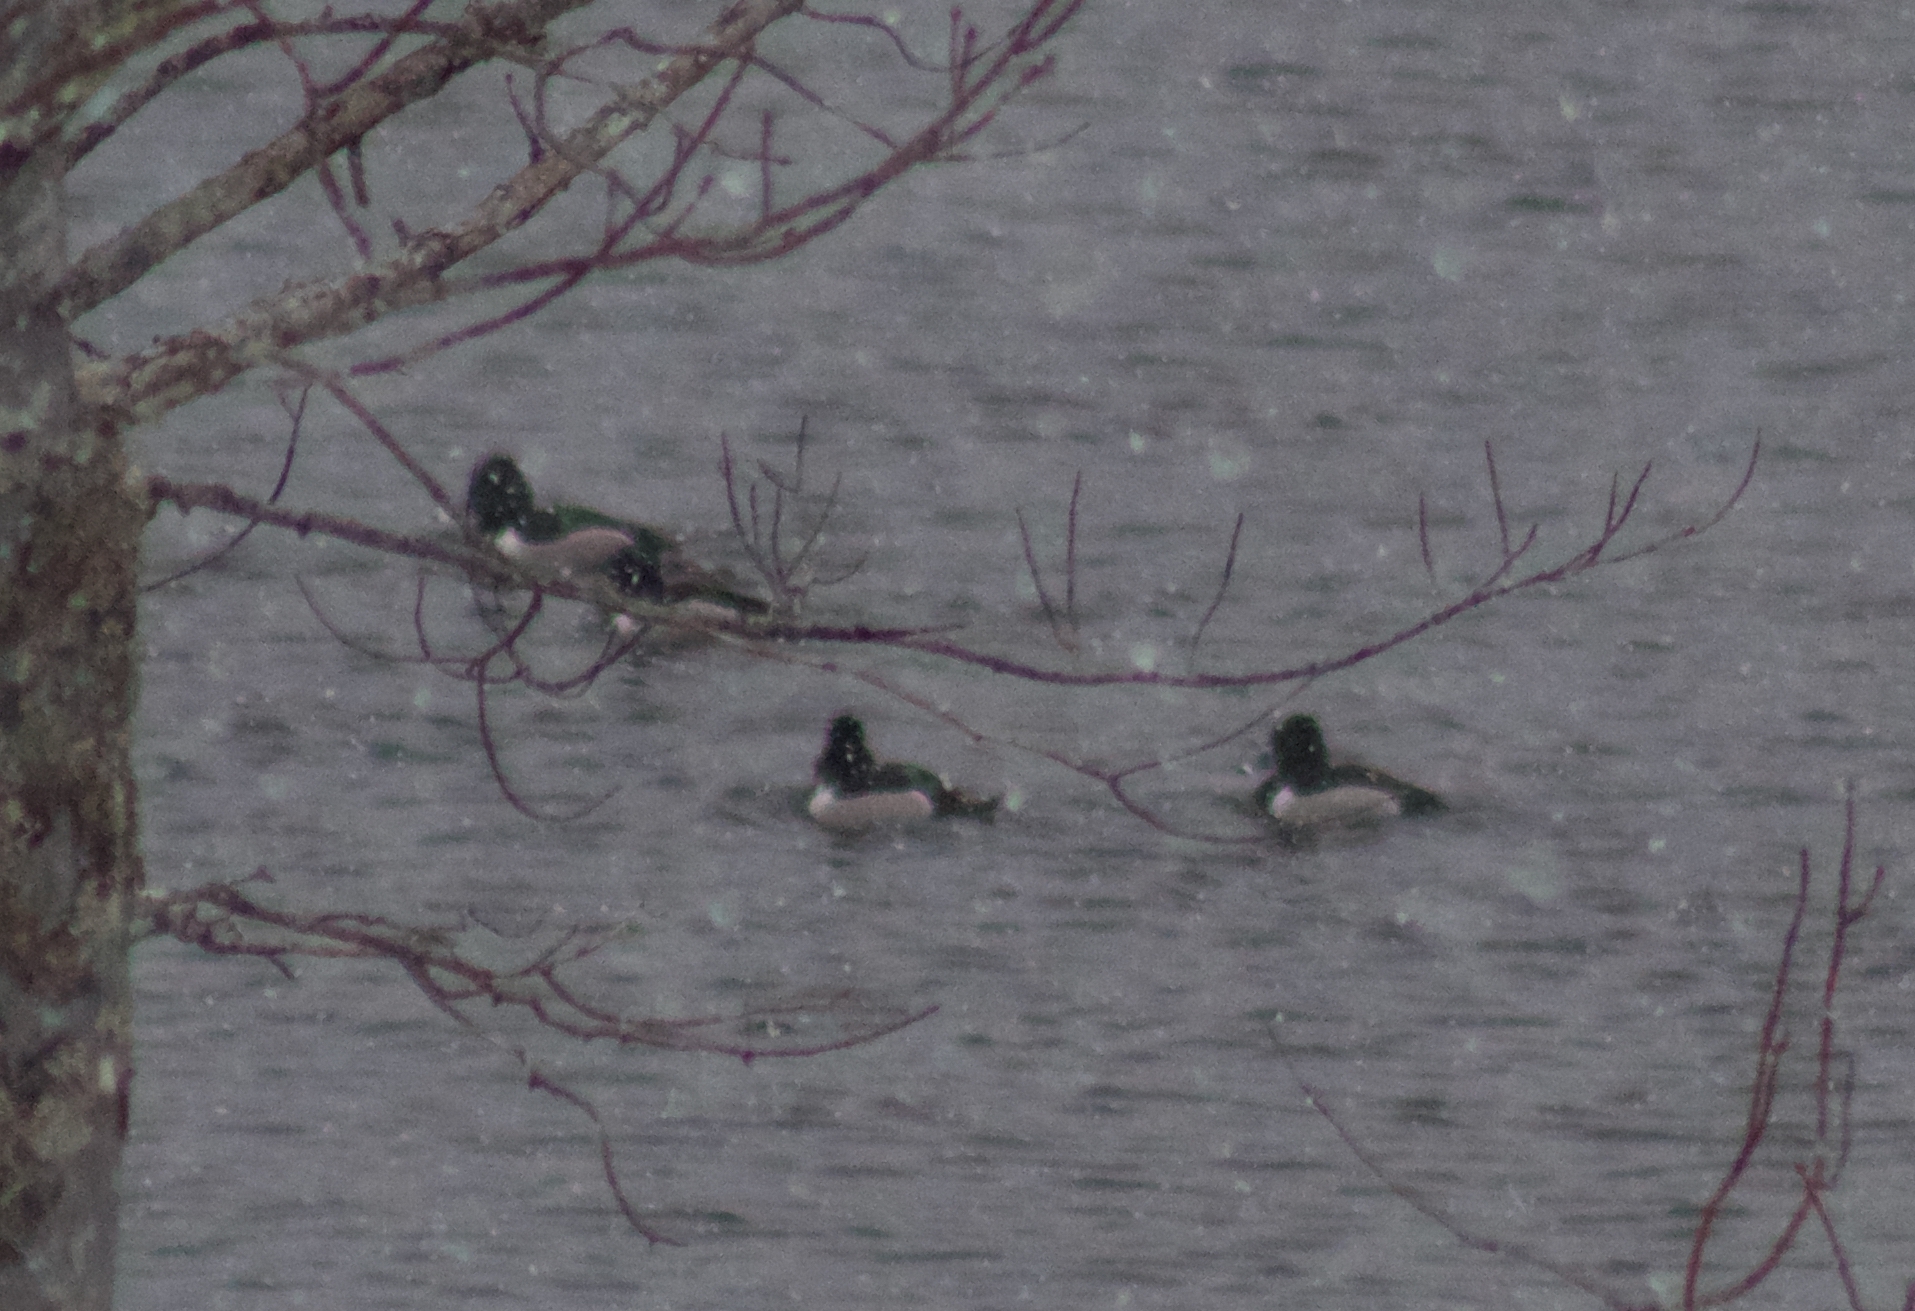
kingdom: Animalia
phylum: Chordata
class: Aves
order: Anseriformes
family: Anatidae
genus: Aythya
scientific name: Aythya collaris
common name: Ring-necked duck
